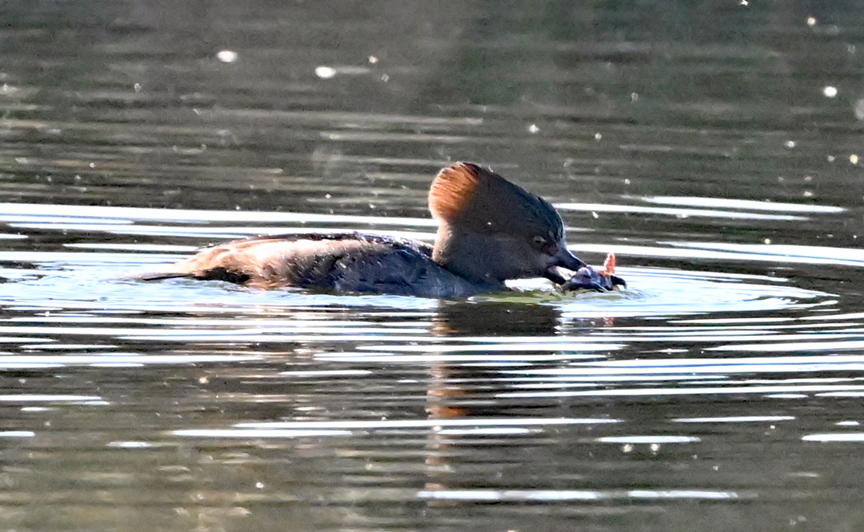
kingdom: Animalia
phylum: Chordata
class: Aves
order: Anseriformes
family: Anatidae
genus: Lophodytes
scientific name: Lophodytes cucullatus
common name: Hooded merganser
